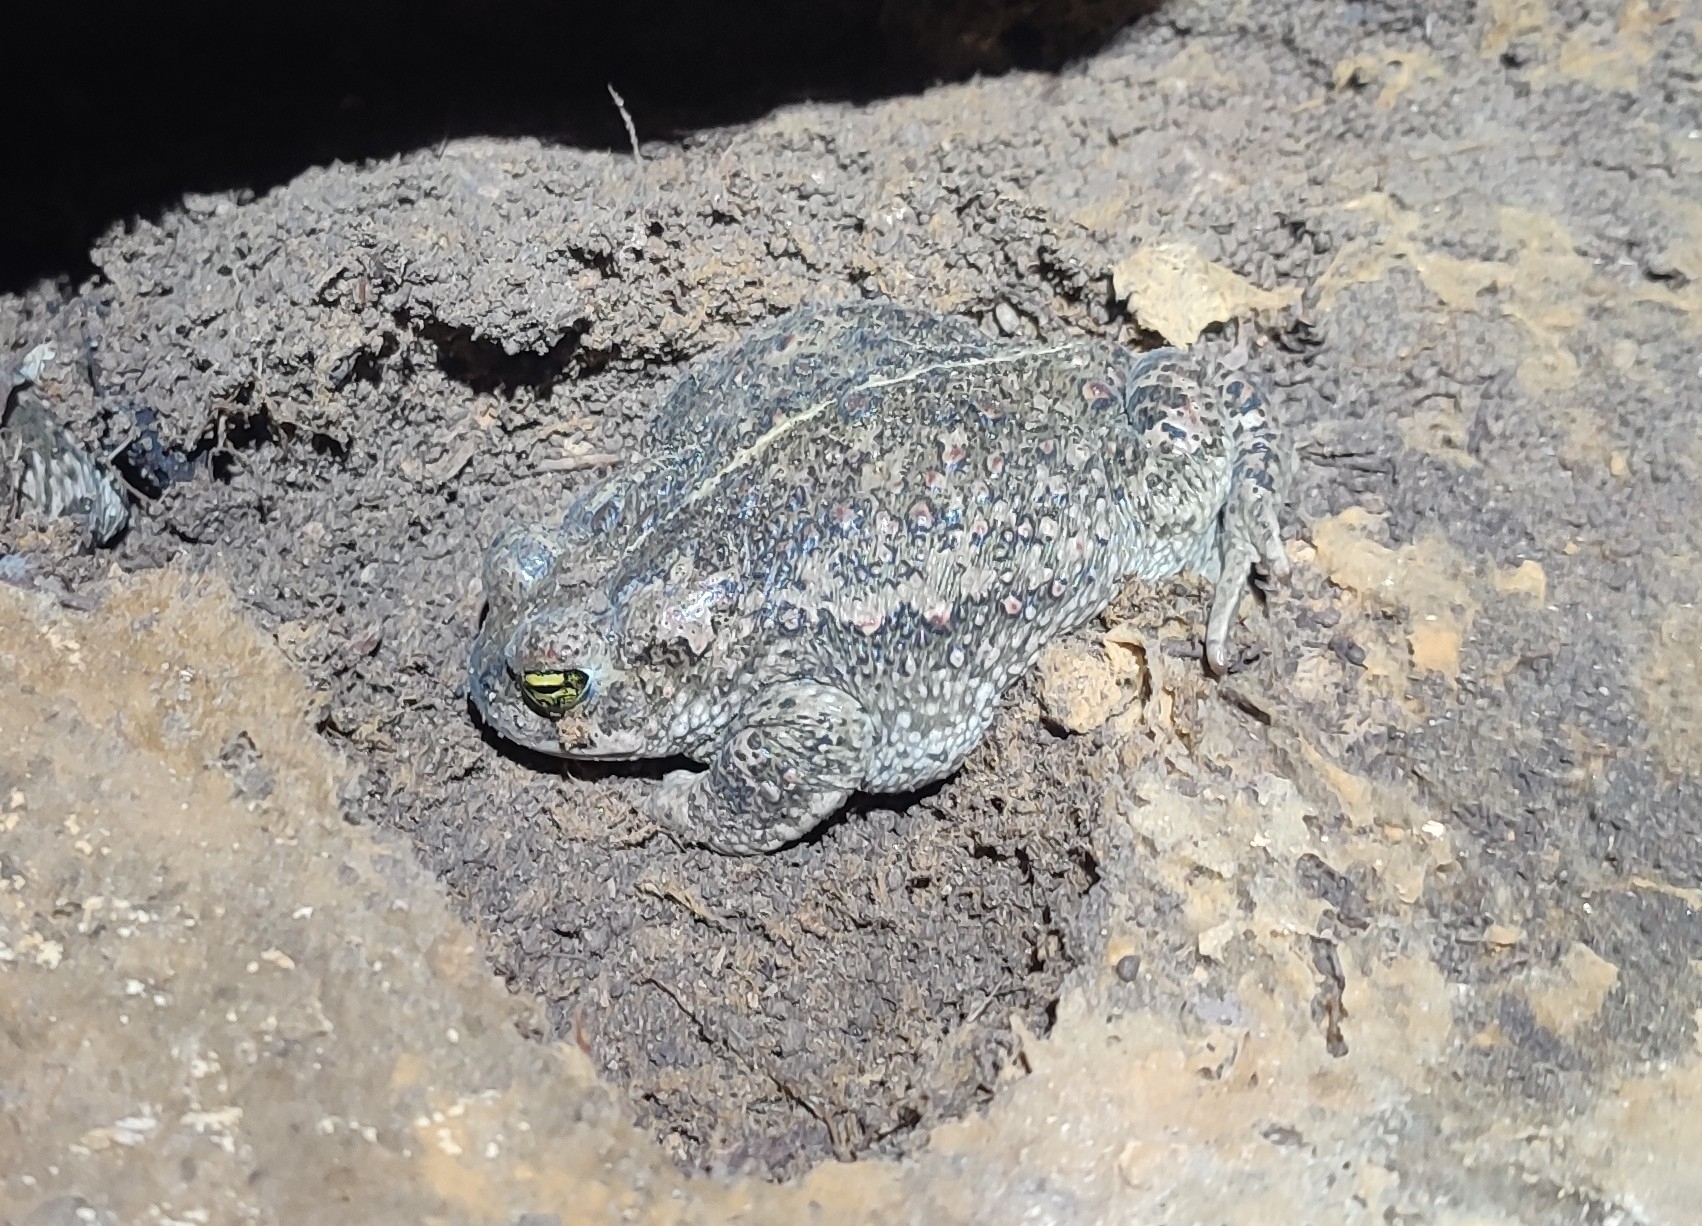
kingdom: Animalia
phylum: Chordata
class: Amphibia
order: Anura
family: Bufonidae
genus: Epidalea
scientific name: Epidalea calamita
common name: Natterjack toad
